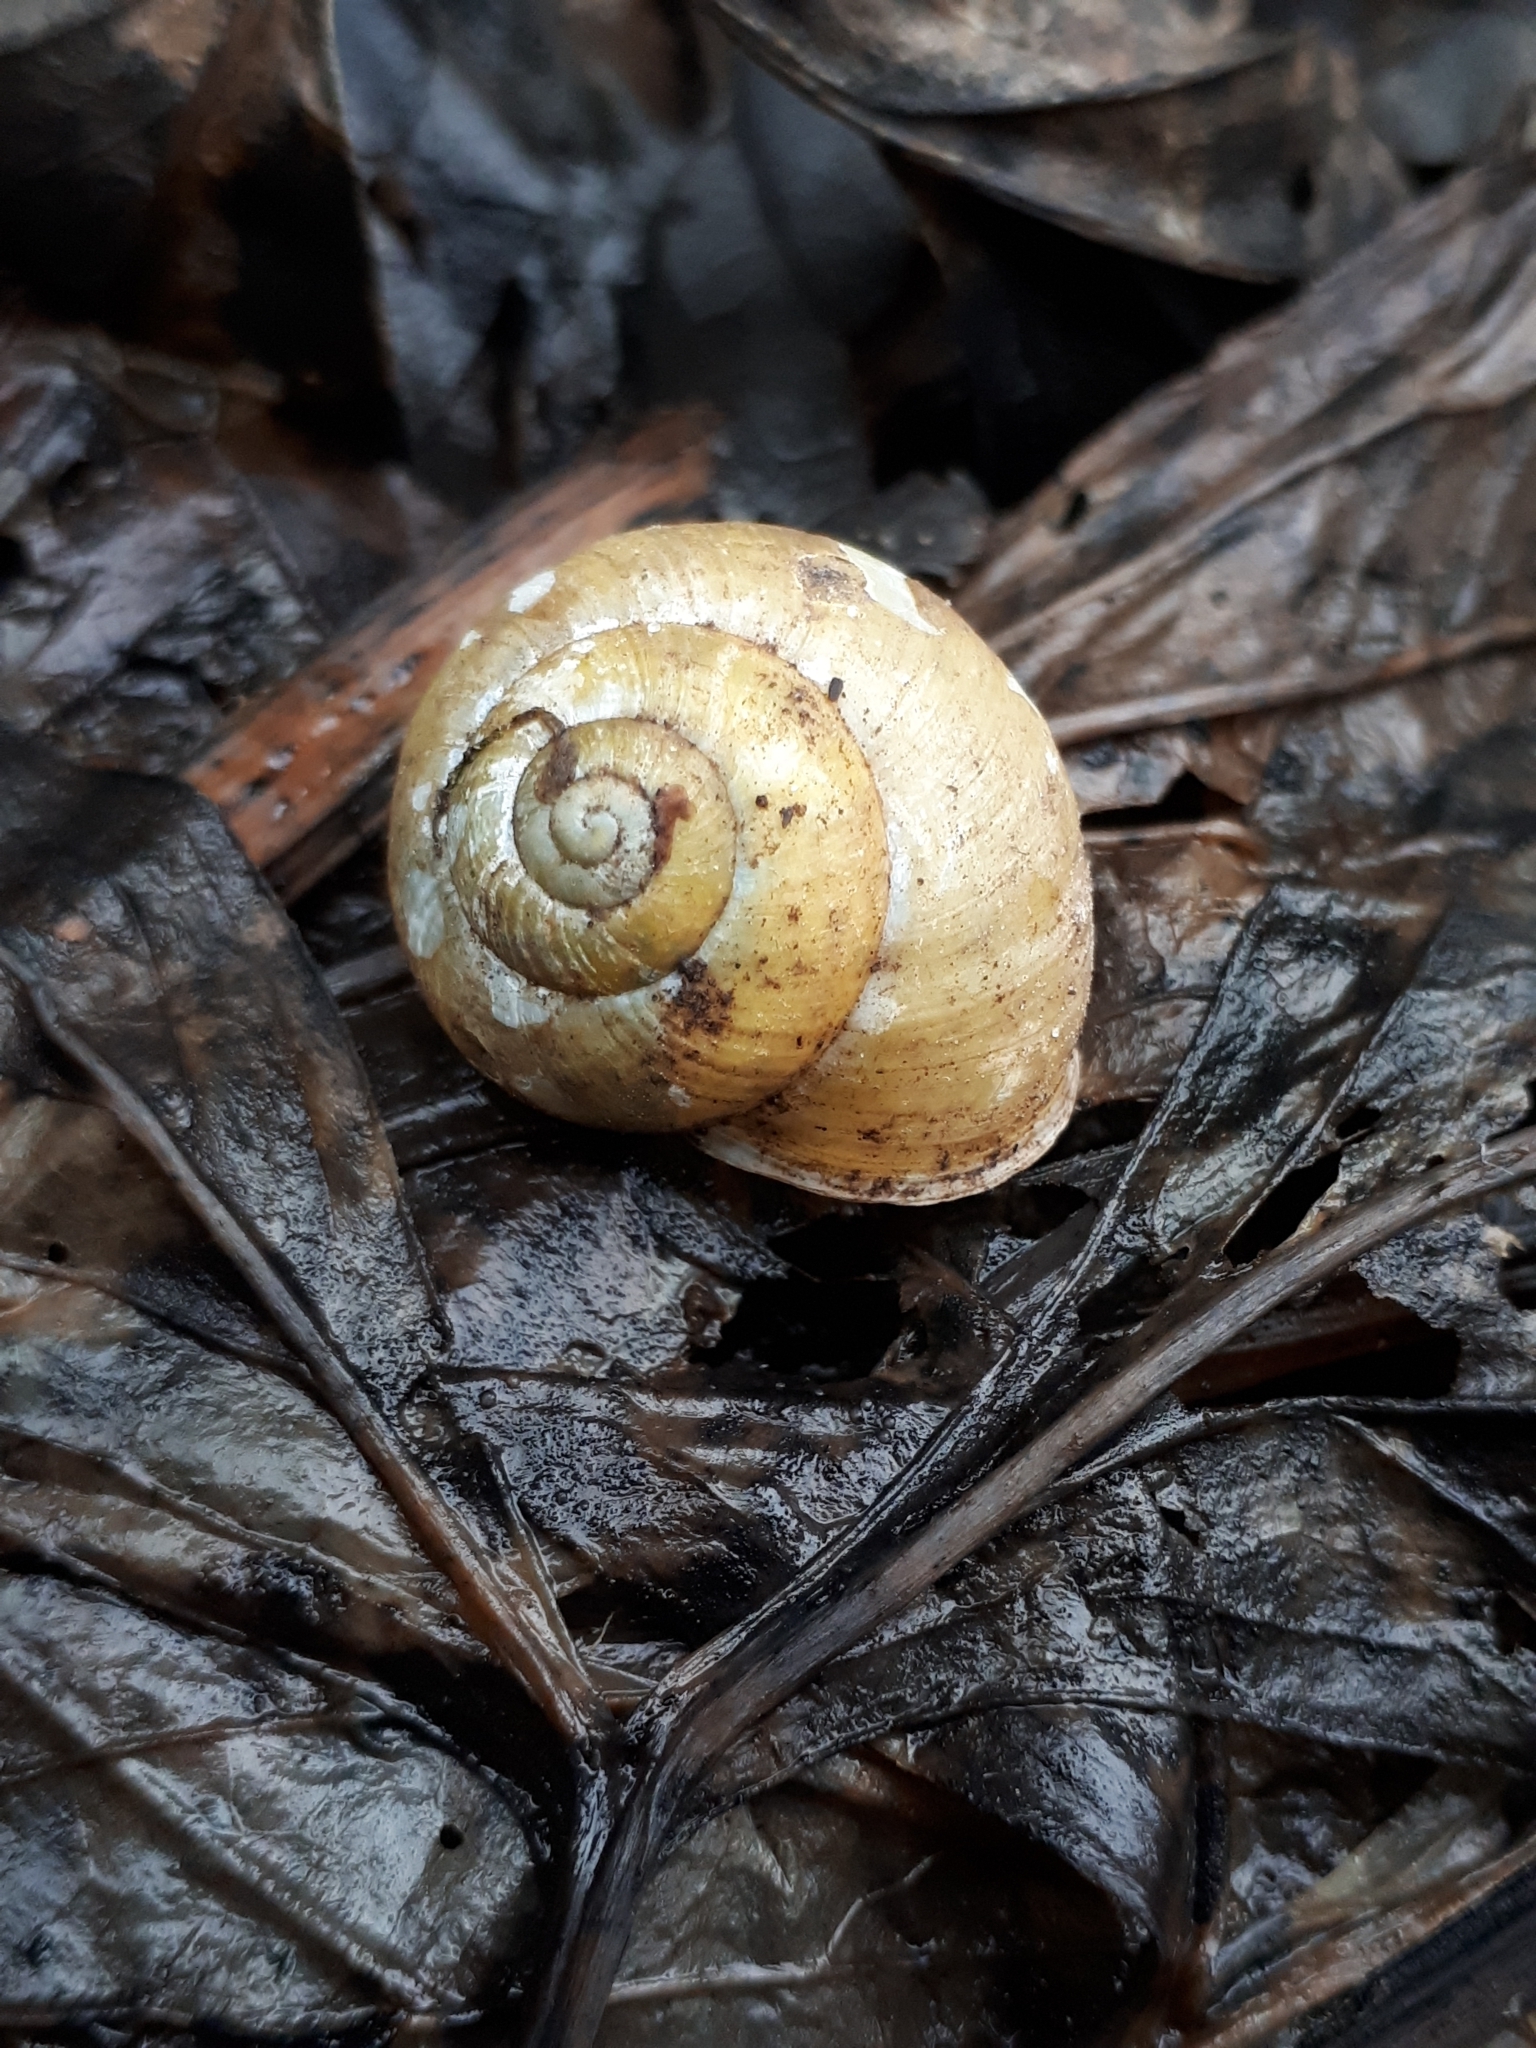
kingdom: Animalia
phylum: Mollusca
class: Gastropoda
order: Stylommatophora
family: Helicidae
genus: Cepaea
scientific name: Cepaea hortensis
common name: White-lip gardensnail
